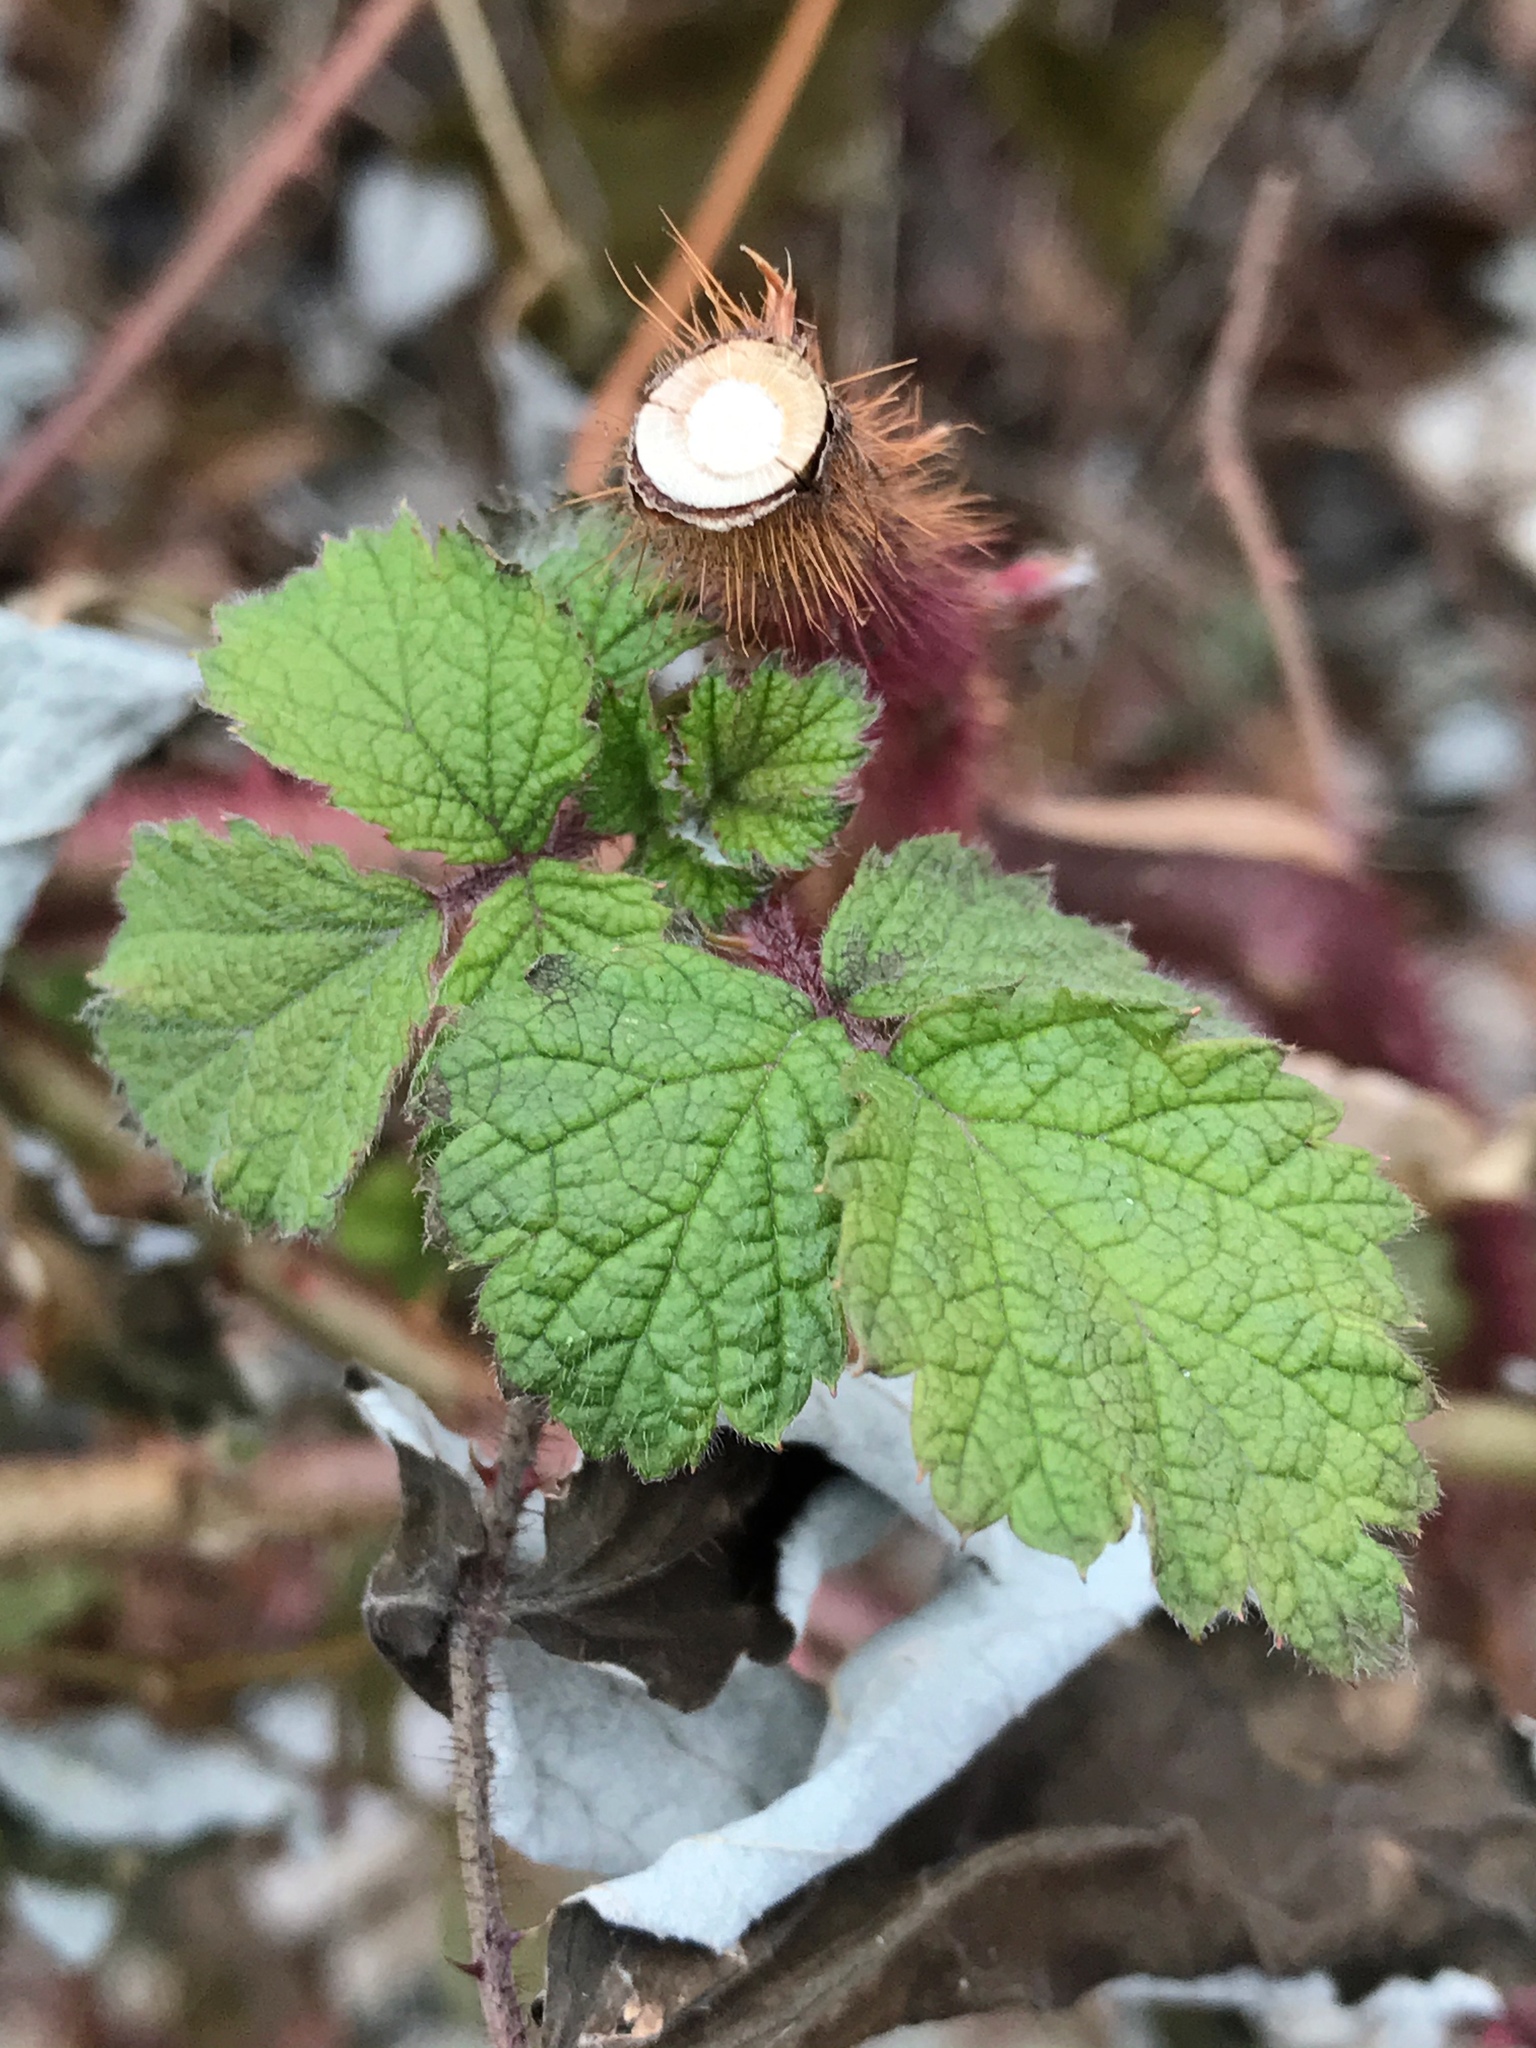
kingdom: Plantae
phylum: Tracheophyta
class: Magnoliopsida
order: Rosales
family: Rosaceae
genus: Rubus
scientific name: Rubus phoenicolasius
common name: Japanese wineberry
